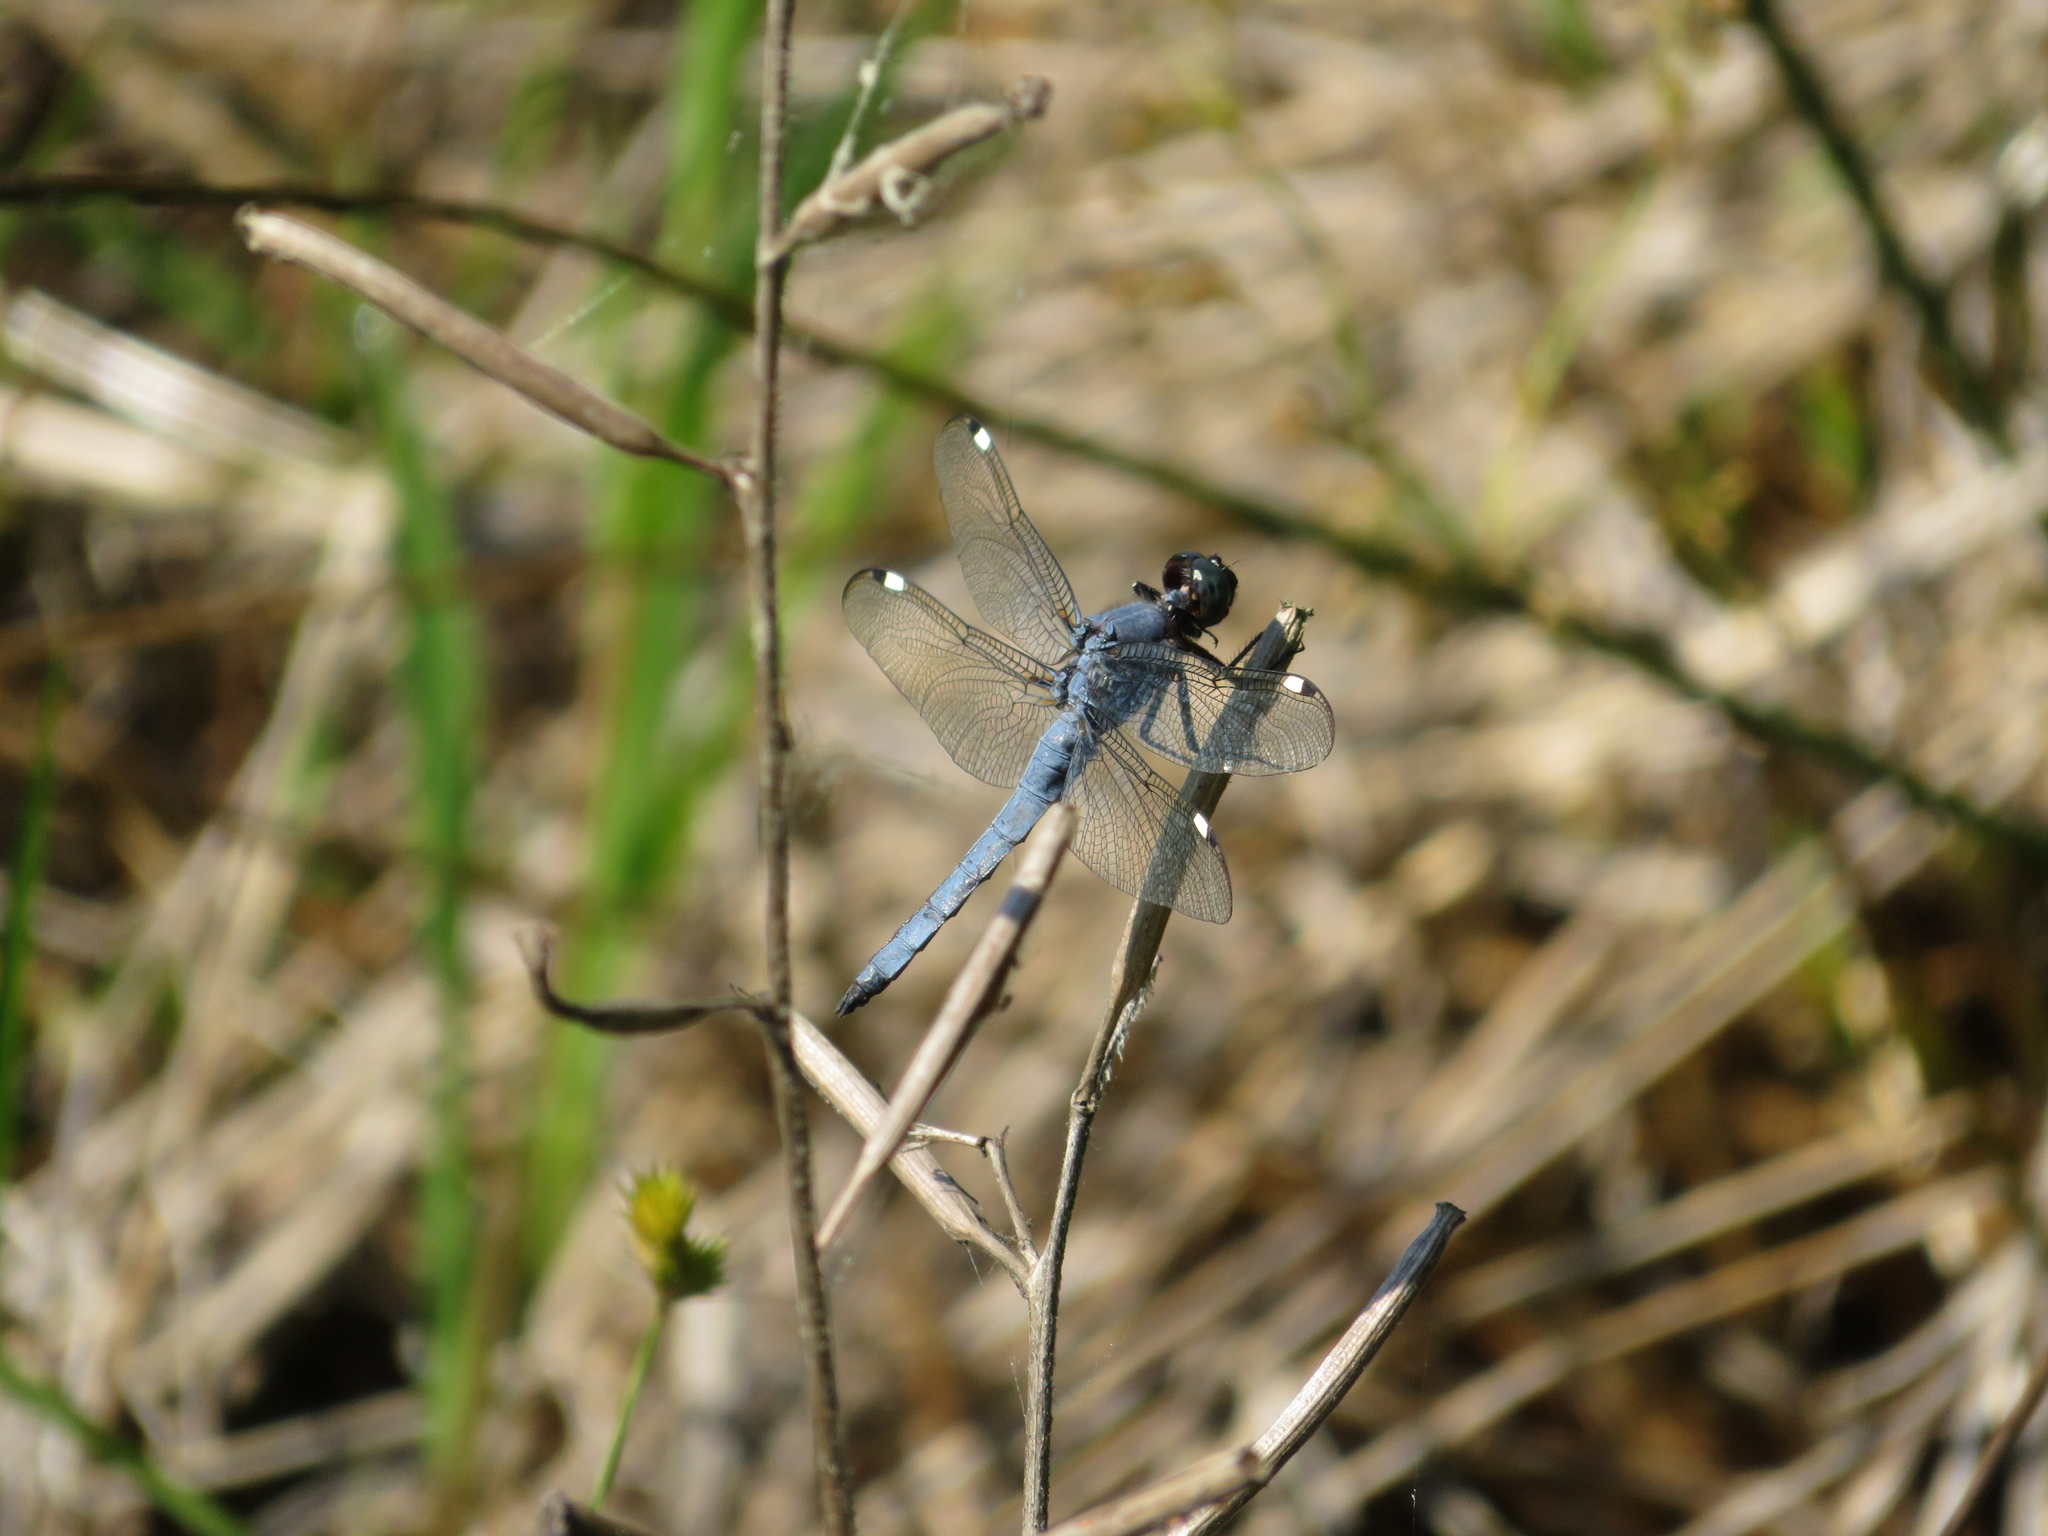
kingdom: Animalia
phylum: Arthropoda
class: Insecta
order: Odonata
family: Libellulidae
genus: Libellula
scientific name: Libellula cyanea
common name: Spangled skimmer
